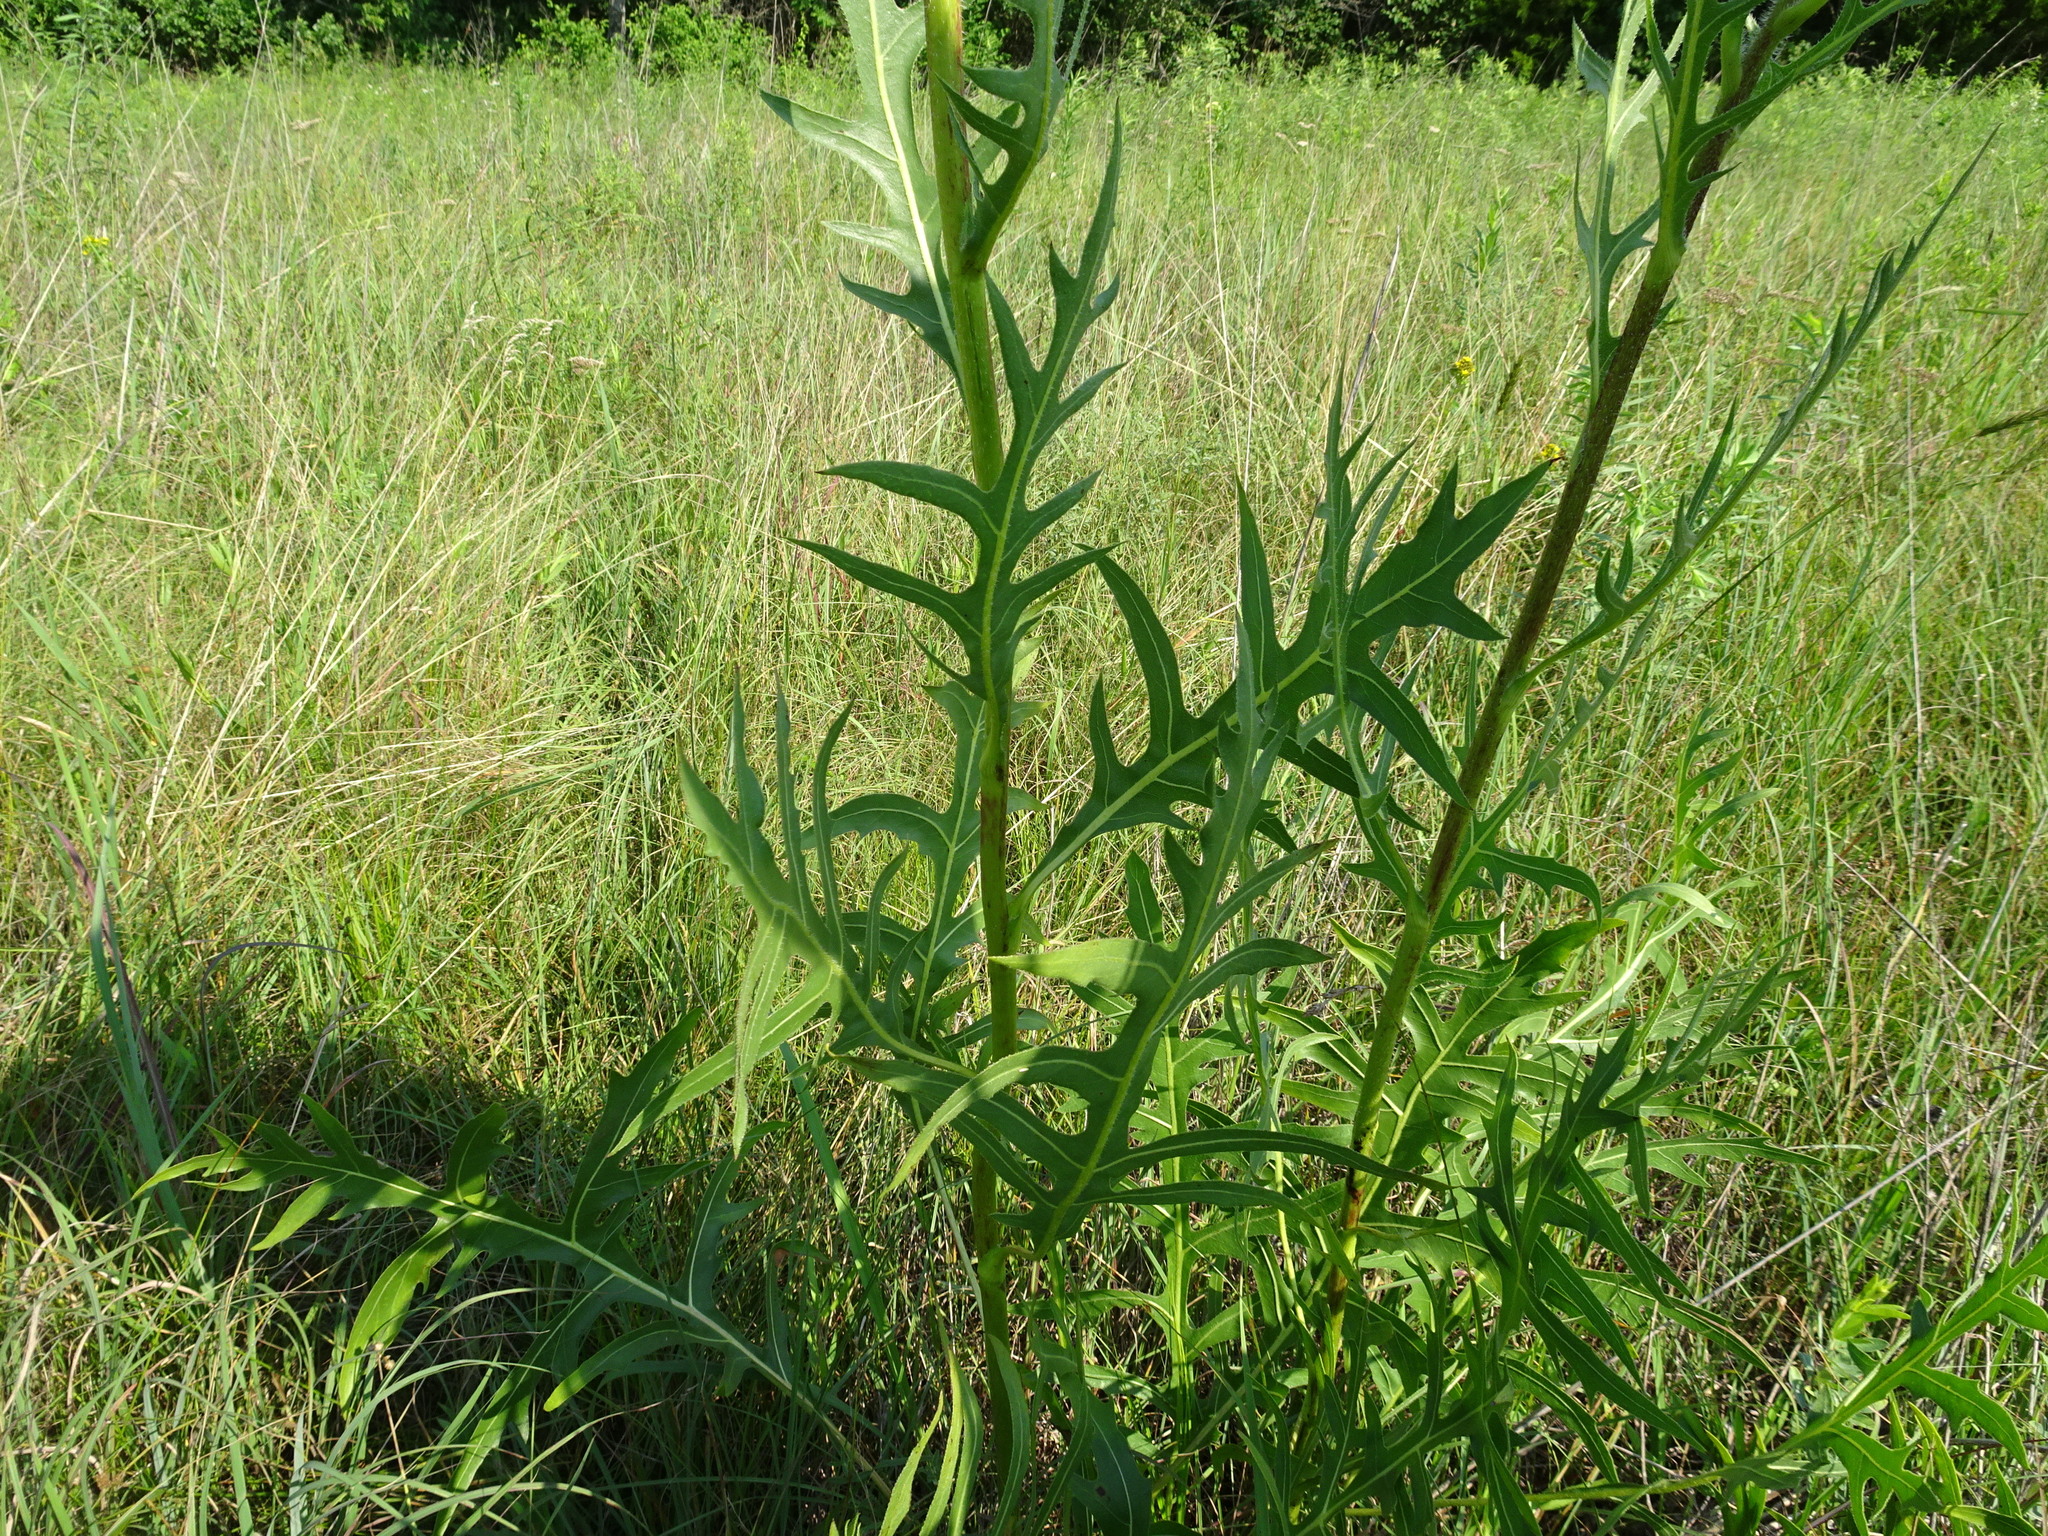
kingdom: Plantae
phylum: Tracheophyta
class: Magnoliopsida
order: Asterales
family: Asteraceae
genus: Silphium
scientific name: Silphium laciniatum
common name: Polarplant
